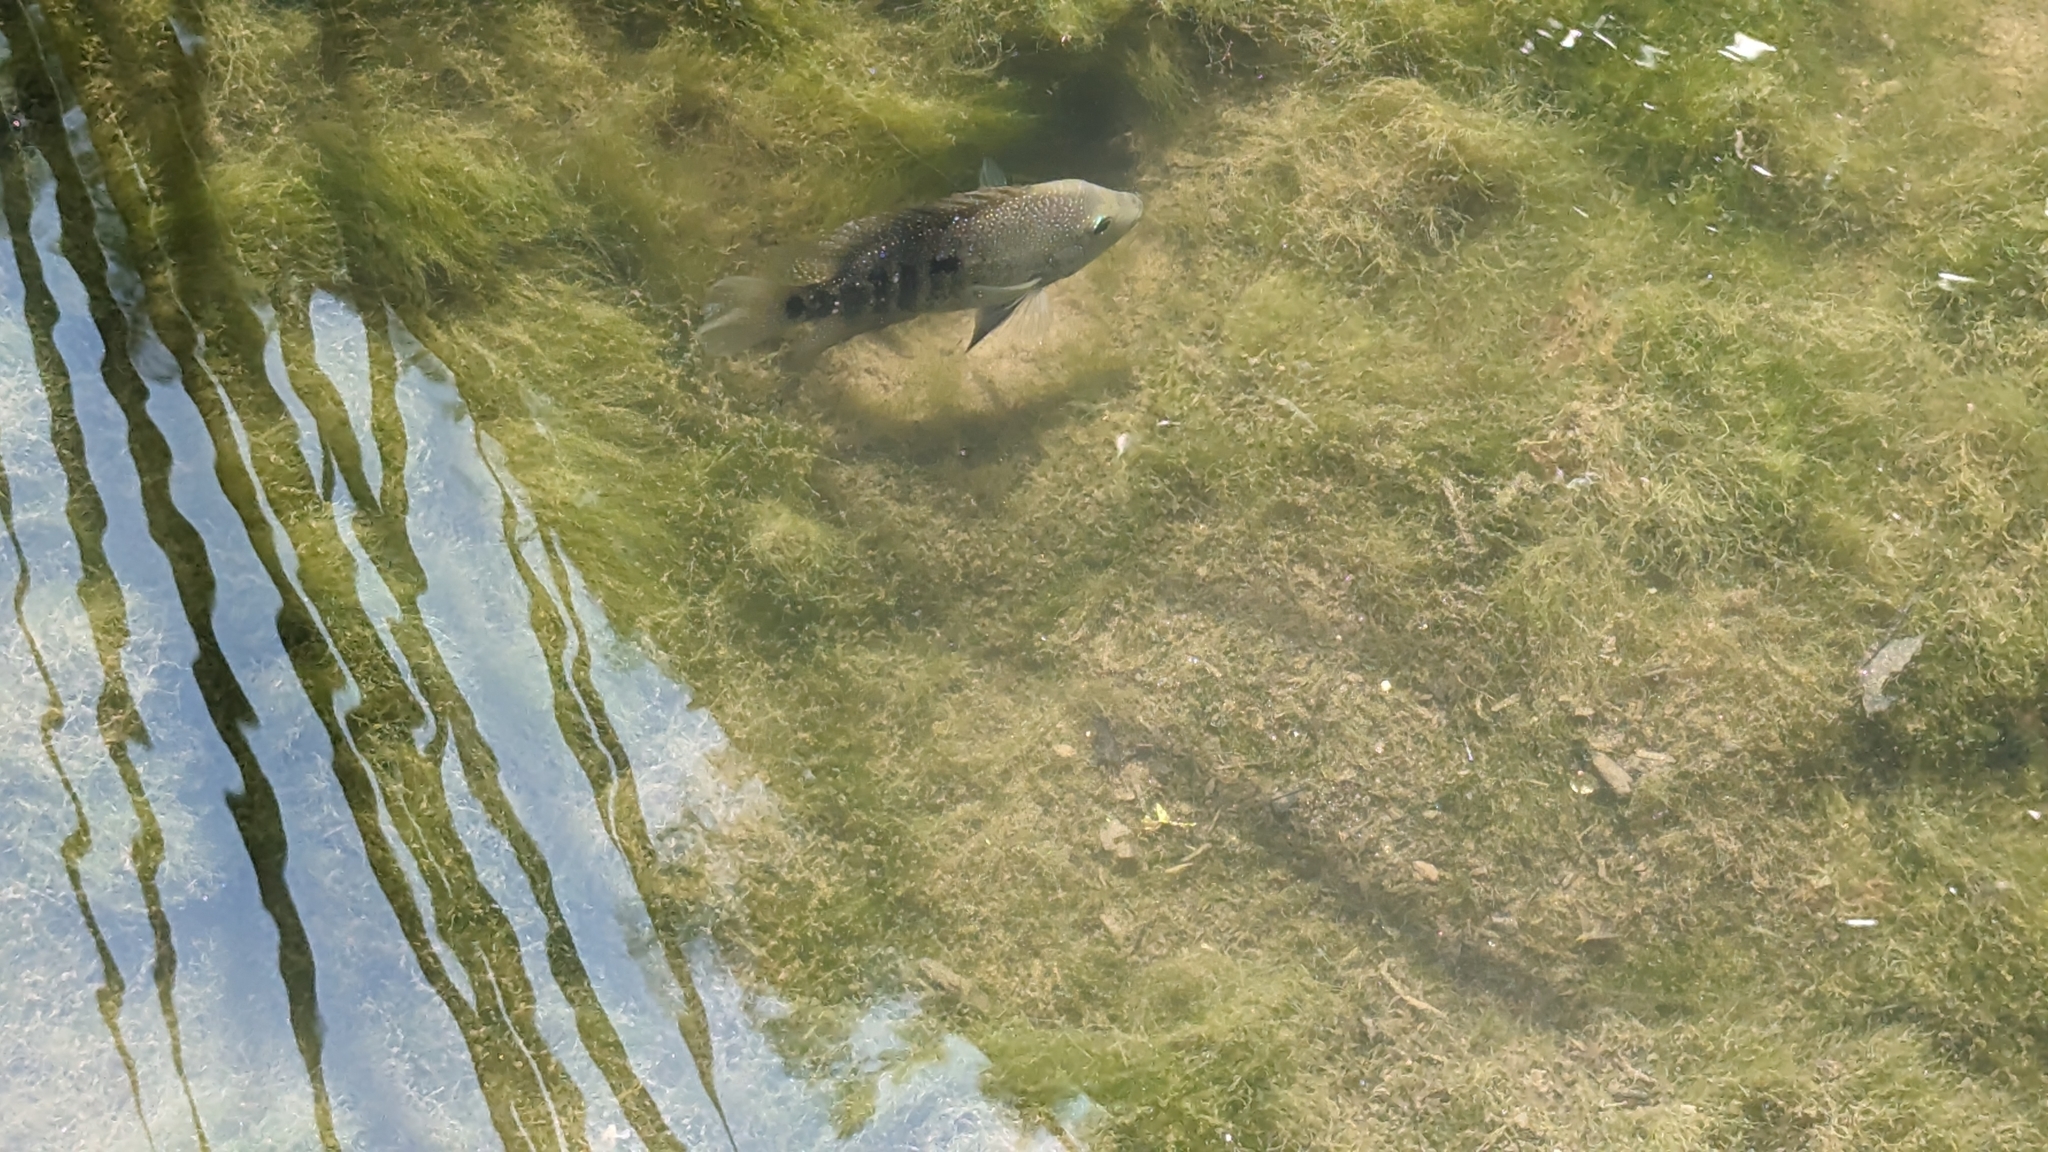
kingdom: Animalia
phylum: Chordata
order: Perciformes
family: Cichlidae
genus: Herichthys
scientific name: Herichthys cyanoguttatus
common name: Rio grande cichlid
